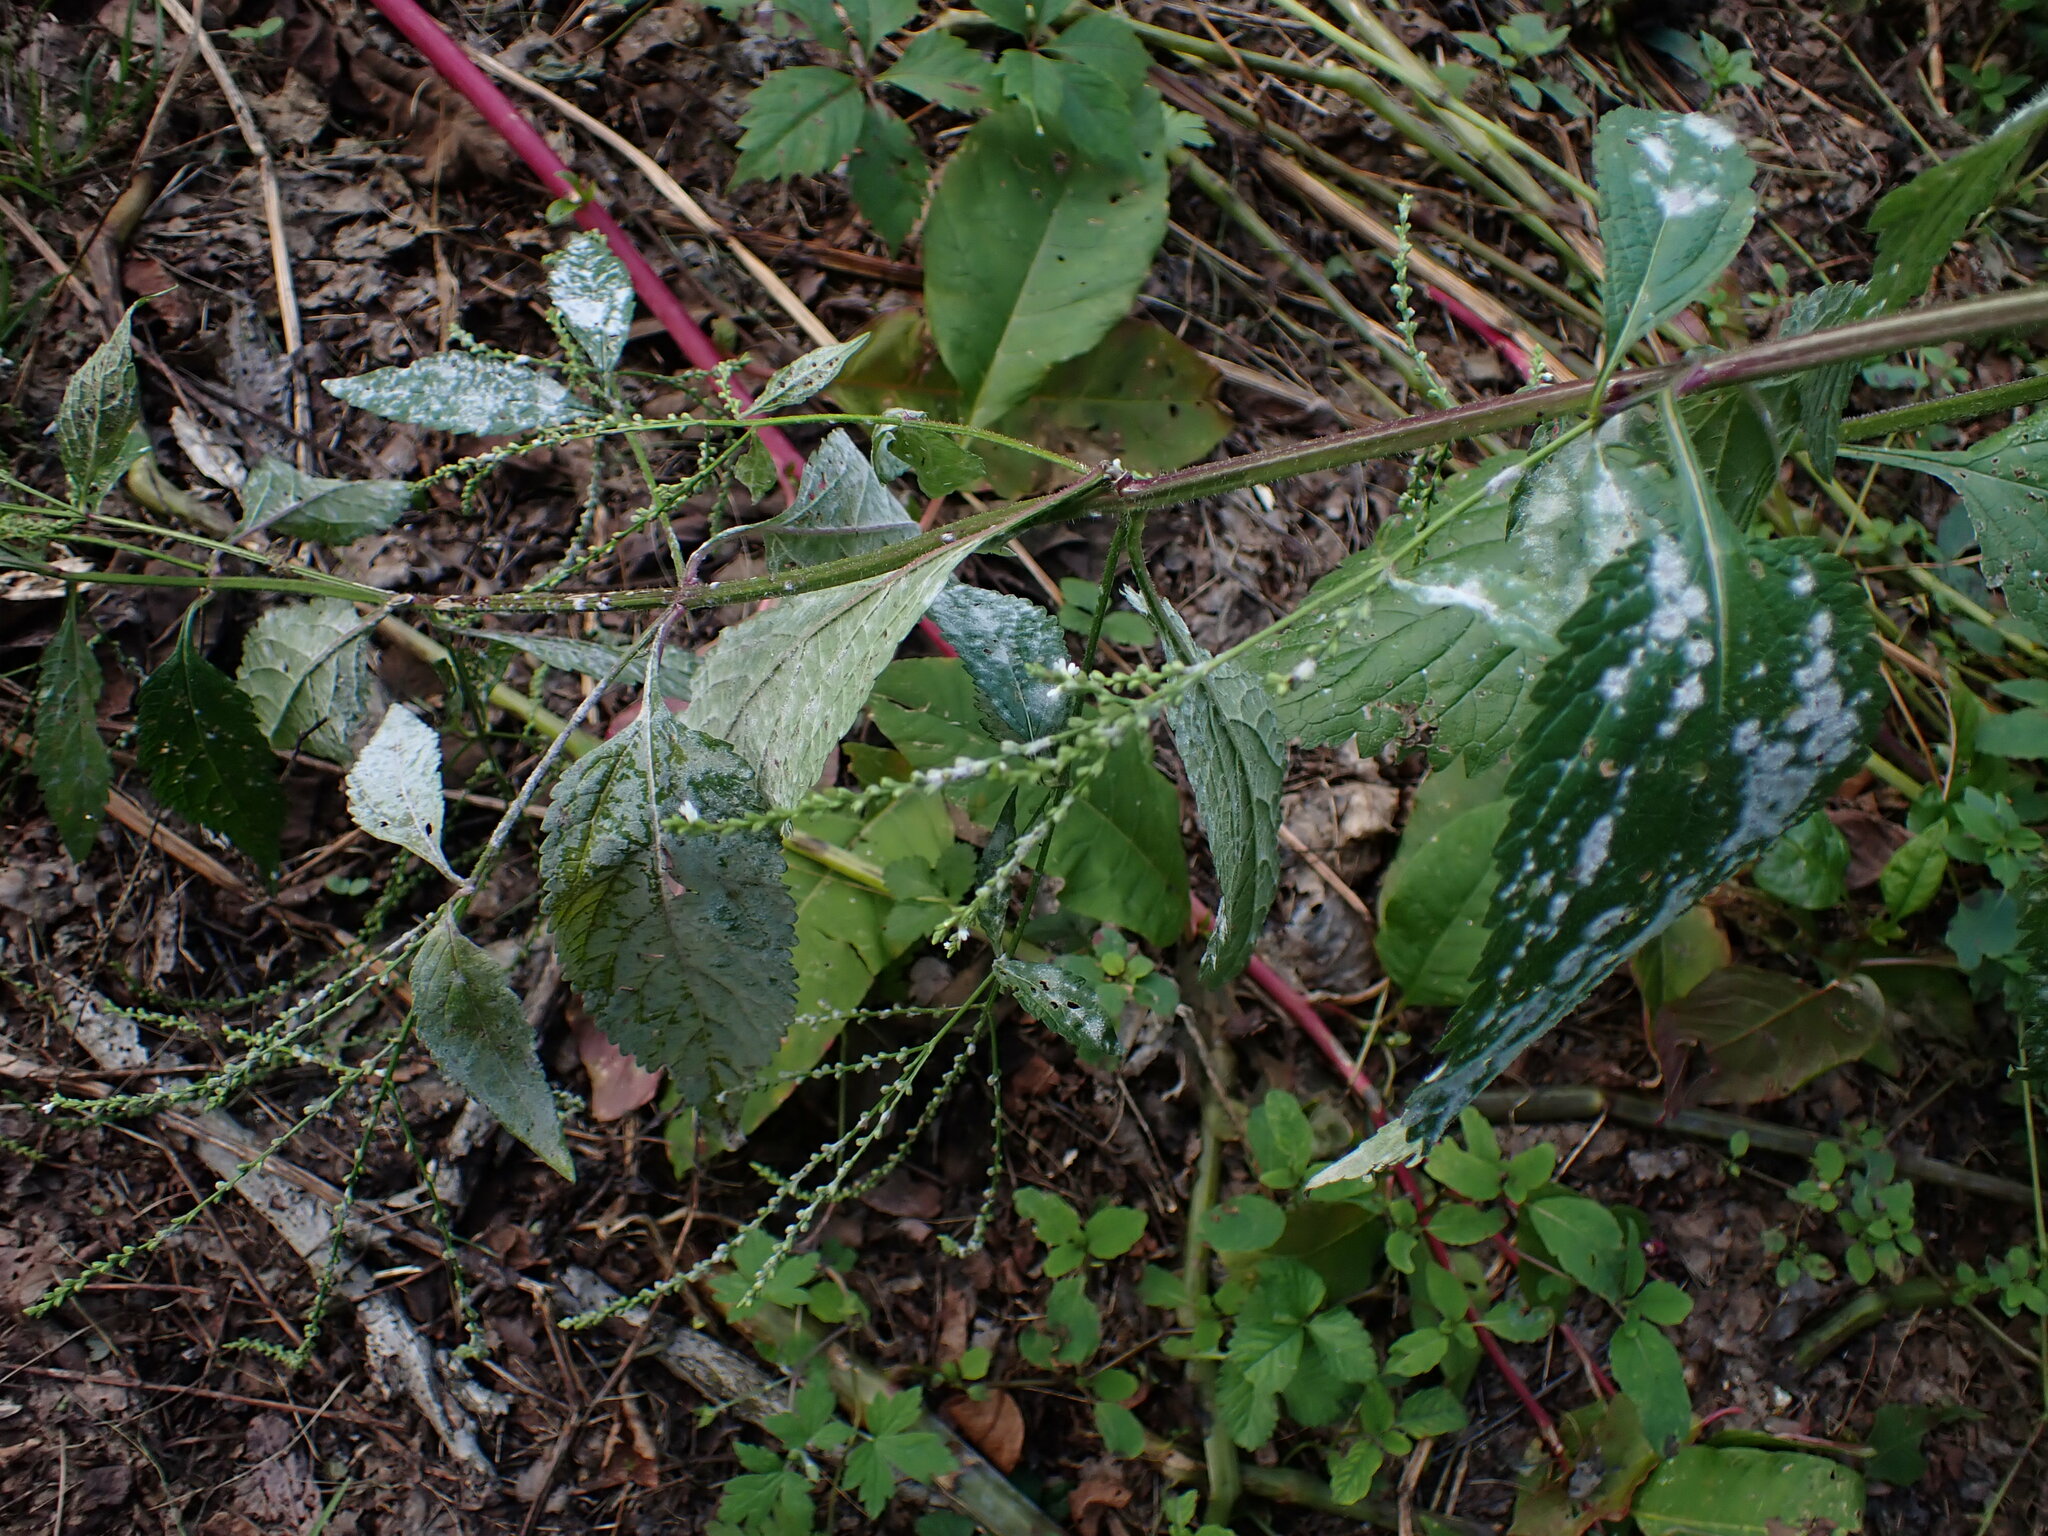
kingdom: Plantae
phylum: Tracheophyta
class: Magnoliopsida
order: Lamiales
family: Verbenaceae
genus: Verbena
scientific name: Verbena urticifolia
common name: Nettle-leaved vervain
